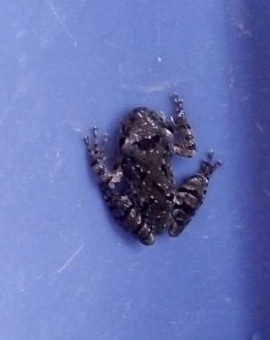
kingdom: Animalia
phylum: Chordata
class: Amphibia
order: Anura
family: Hylidae
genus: Scinax
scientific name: Scinax granulatus
